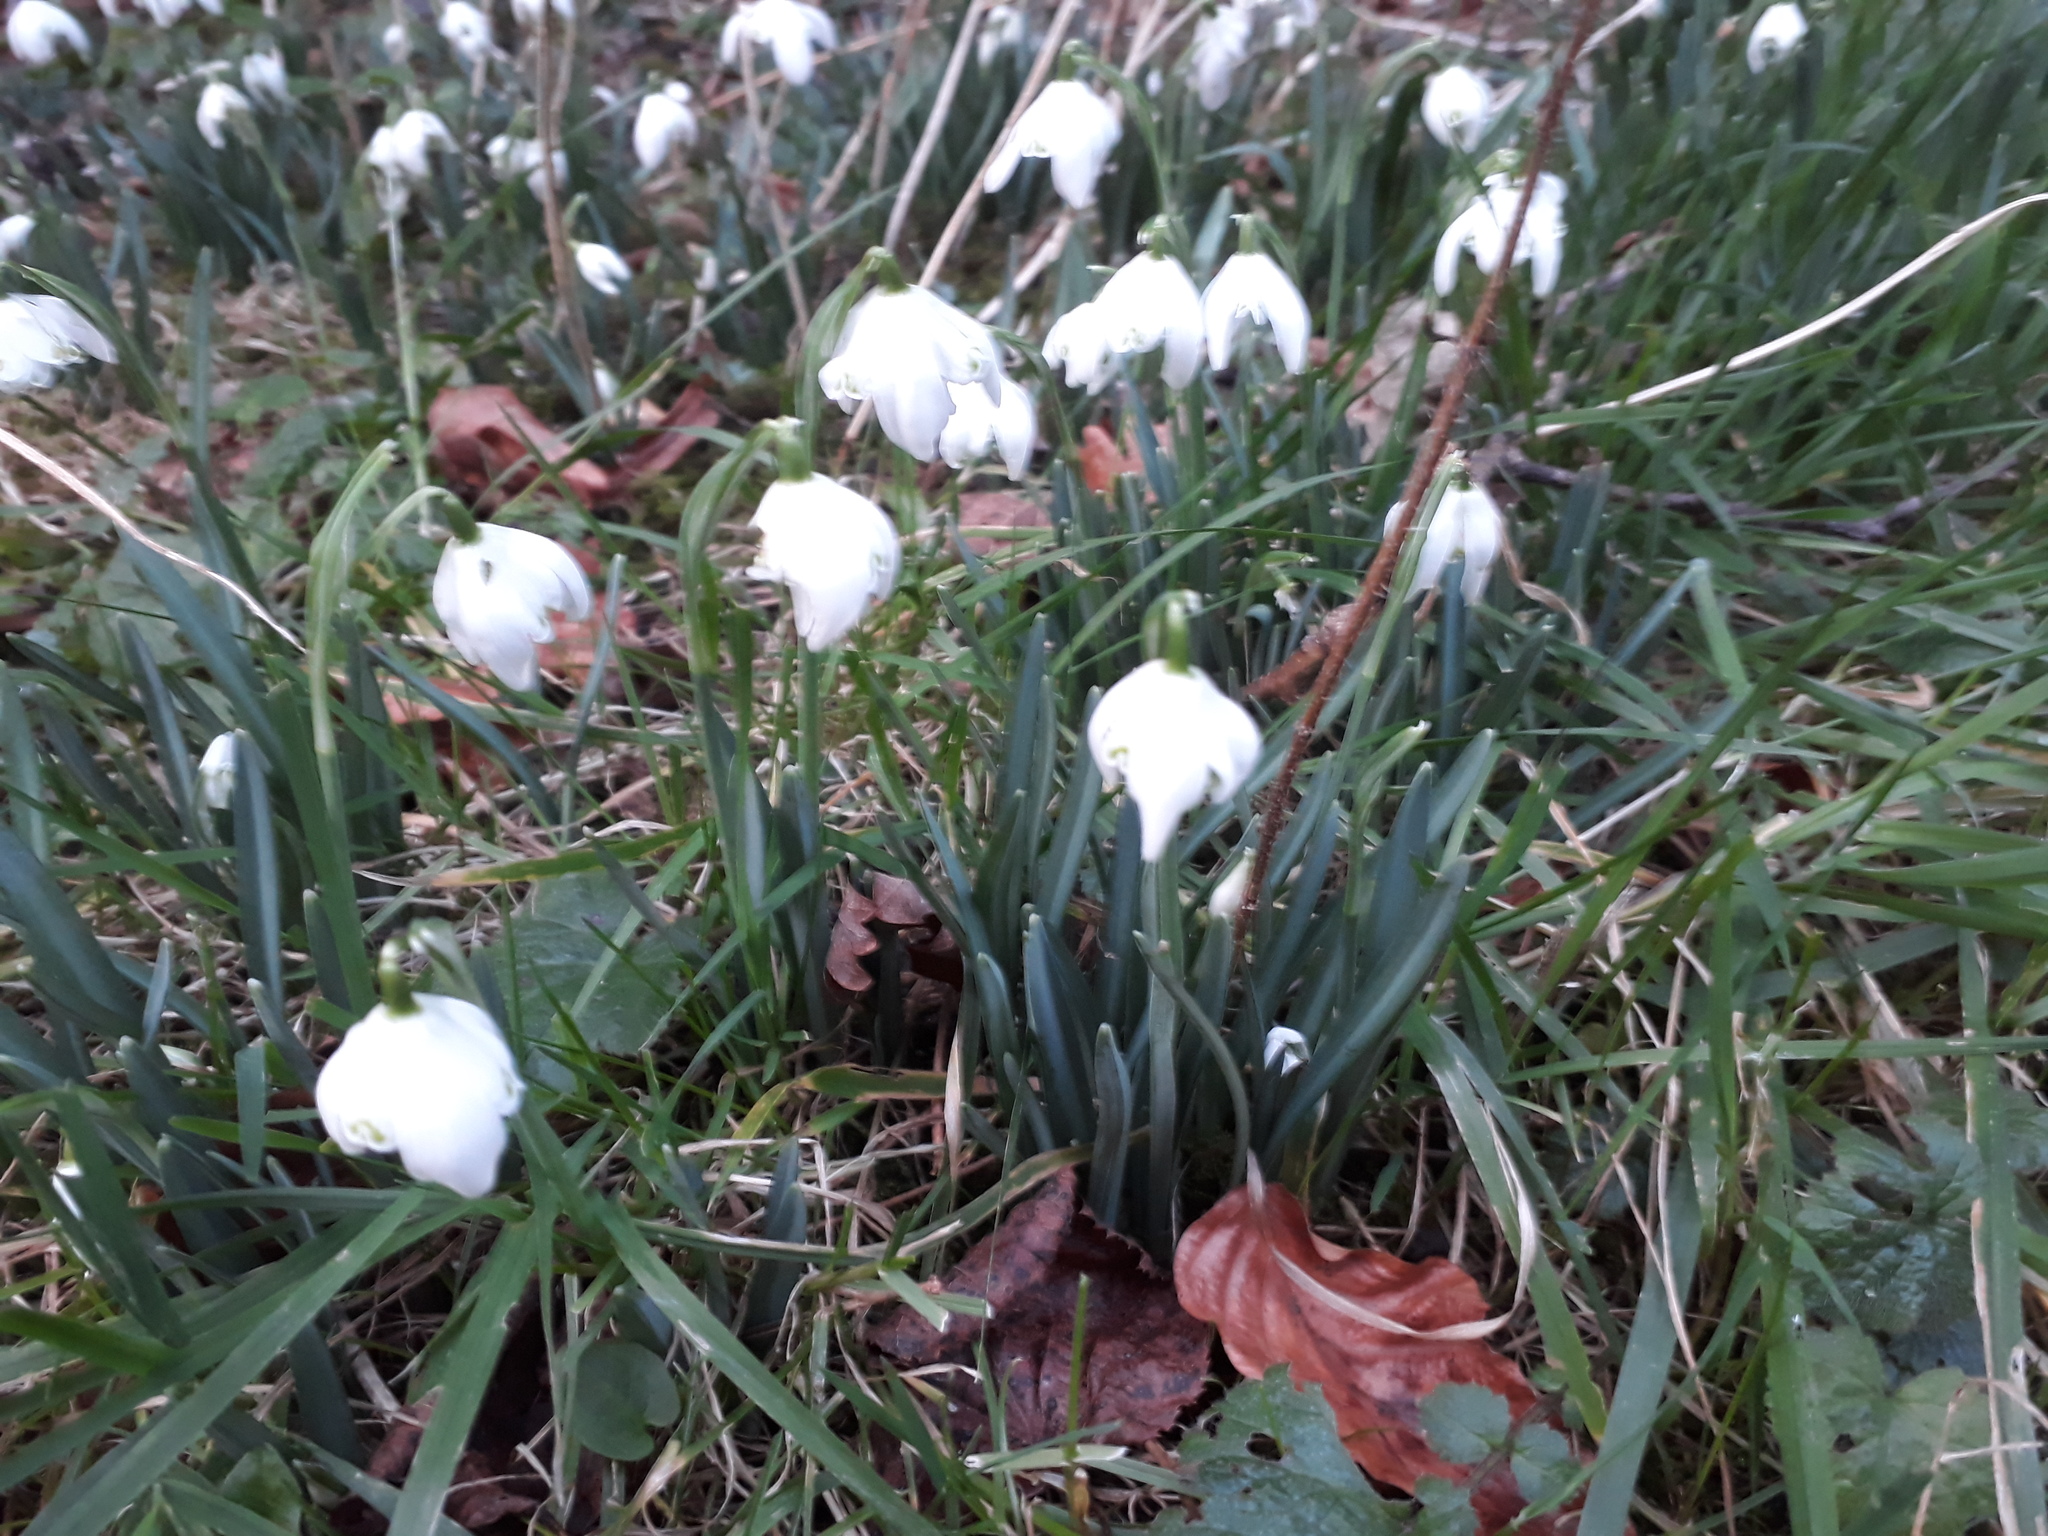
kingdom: Plantae
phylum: Tracheophyta
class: Liliopsida
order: Asparagales
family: Amaryllidaceae
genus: Galanthus
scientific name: Galanthus nivalis
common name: Snowdrop
